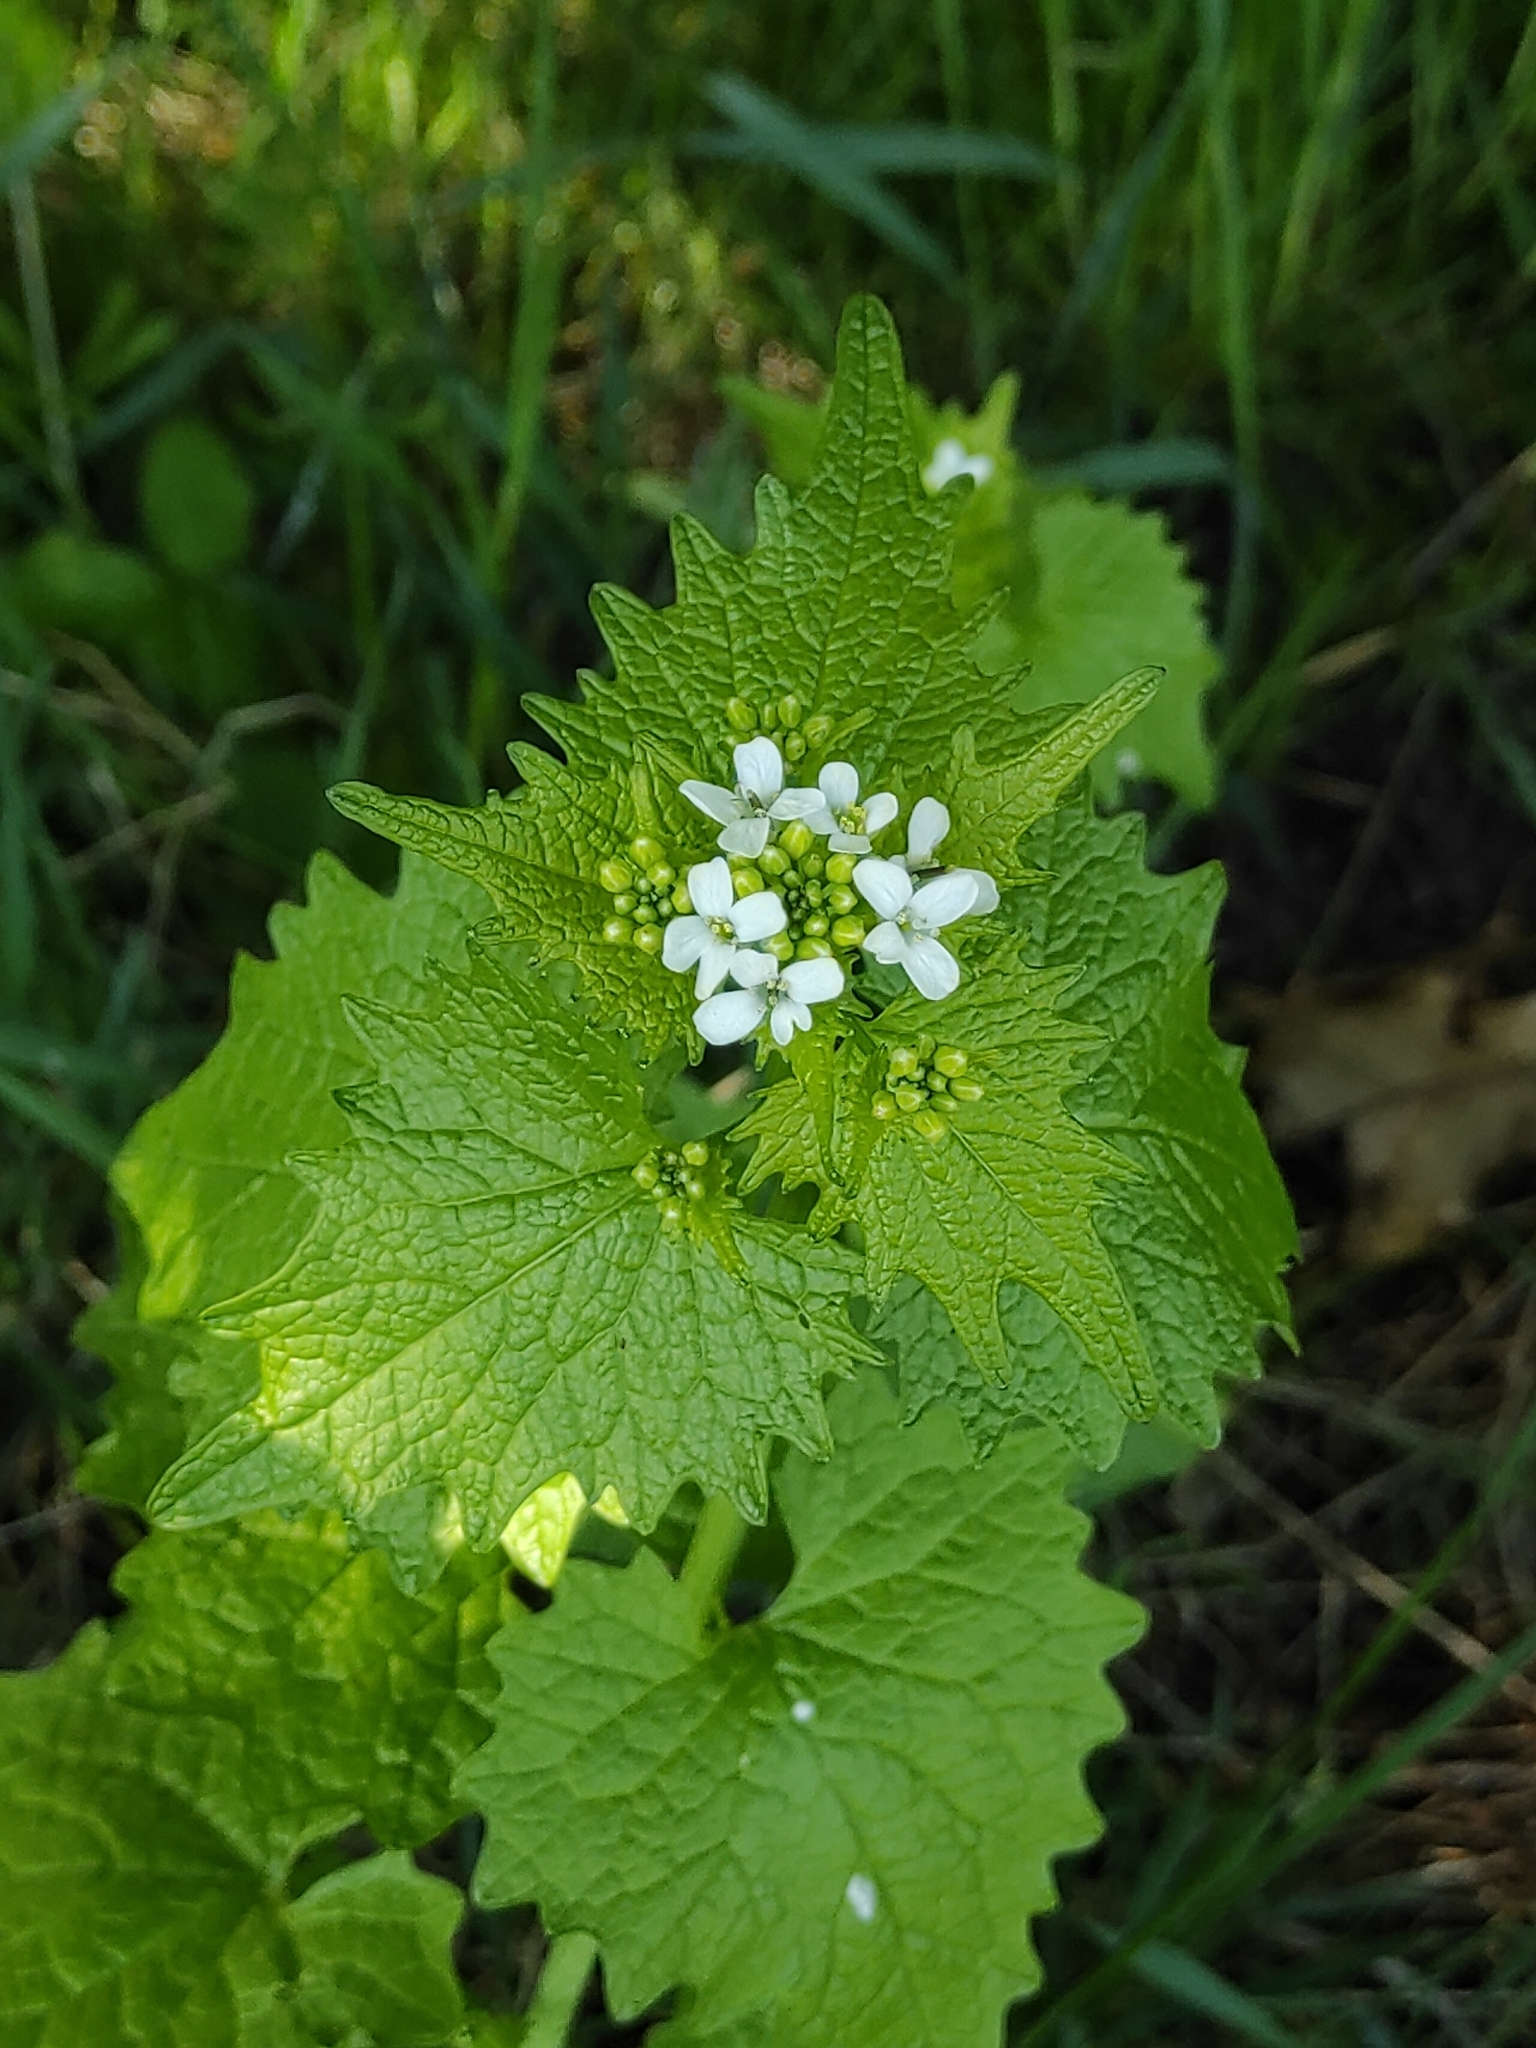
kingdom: Plantae
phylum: Tracheophyta
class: Magnoliopsida
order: Brassicales
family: Brassicaceae
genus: Alliaria
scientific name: Alliaria petiolata
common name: Garlic mustard
